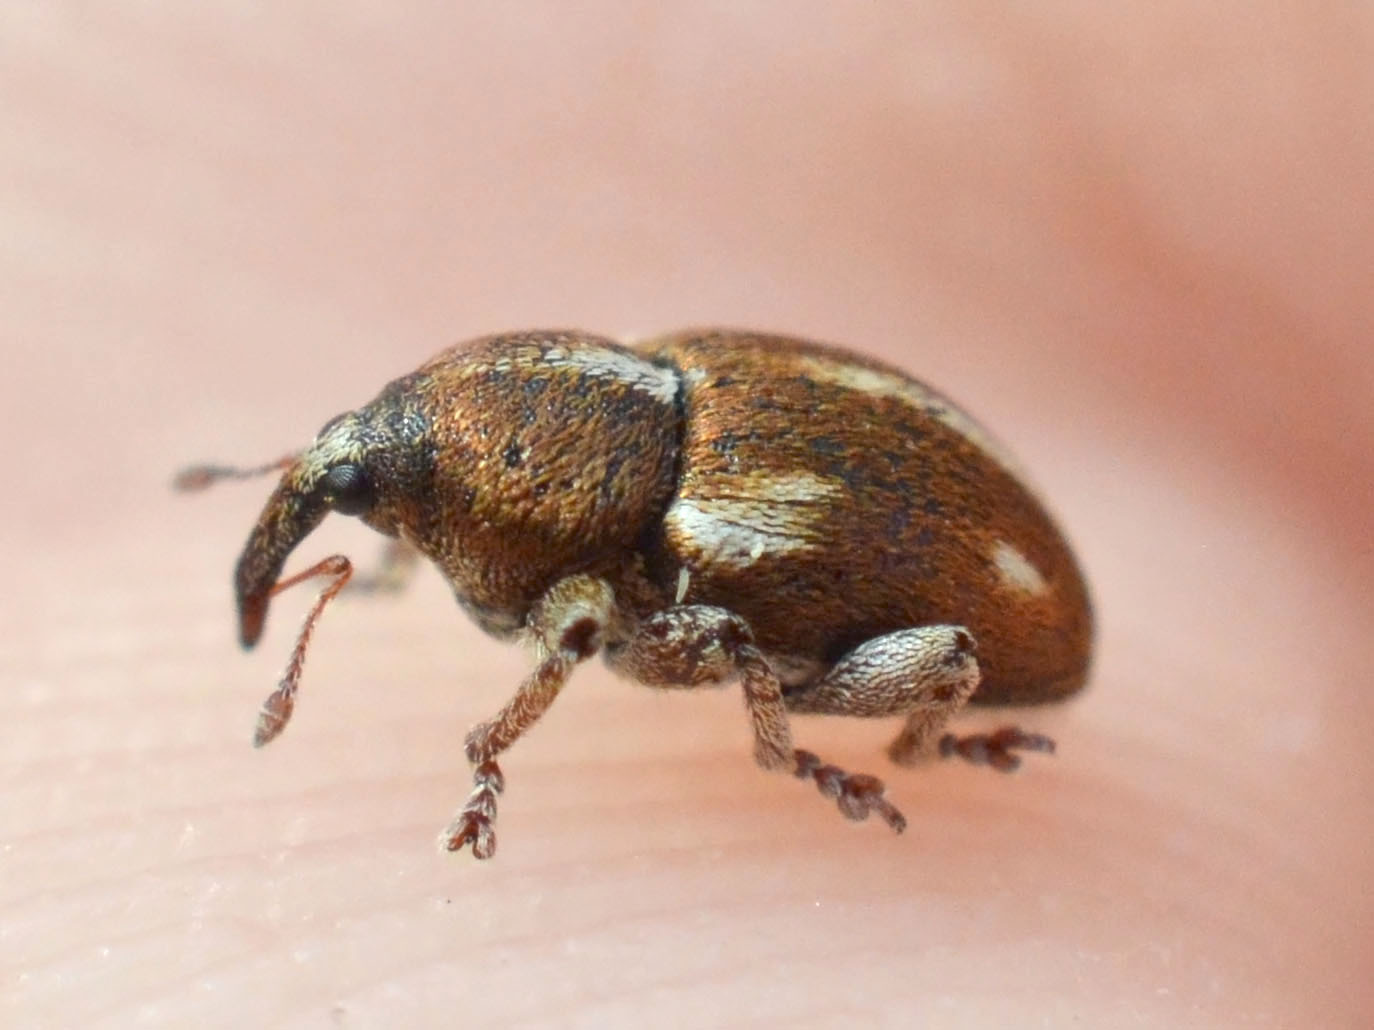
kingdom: Animalia
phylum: Arthropoda
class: Insecta
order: Coleoptera
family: Curculionidae
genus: Tychius
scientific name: Tychius quinquepunctatus
